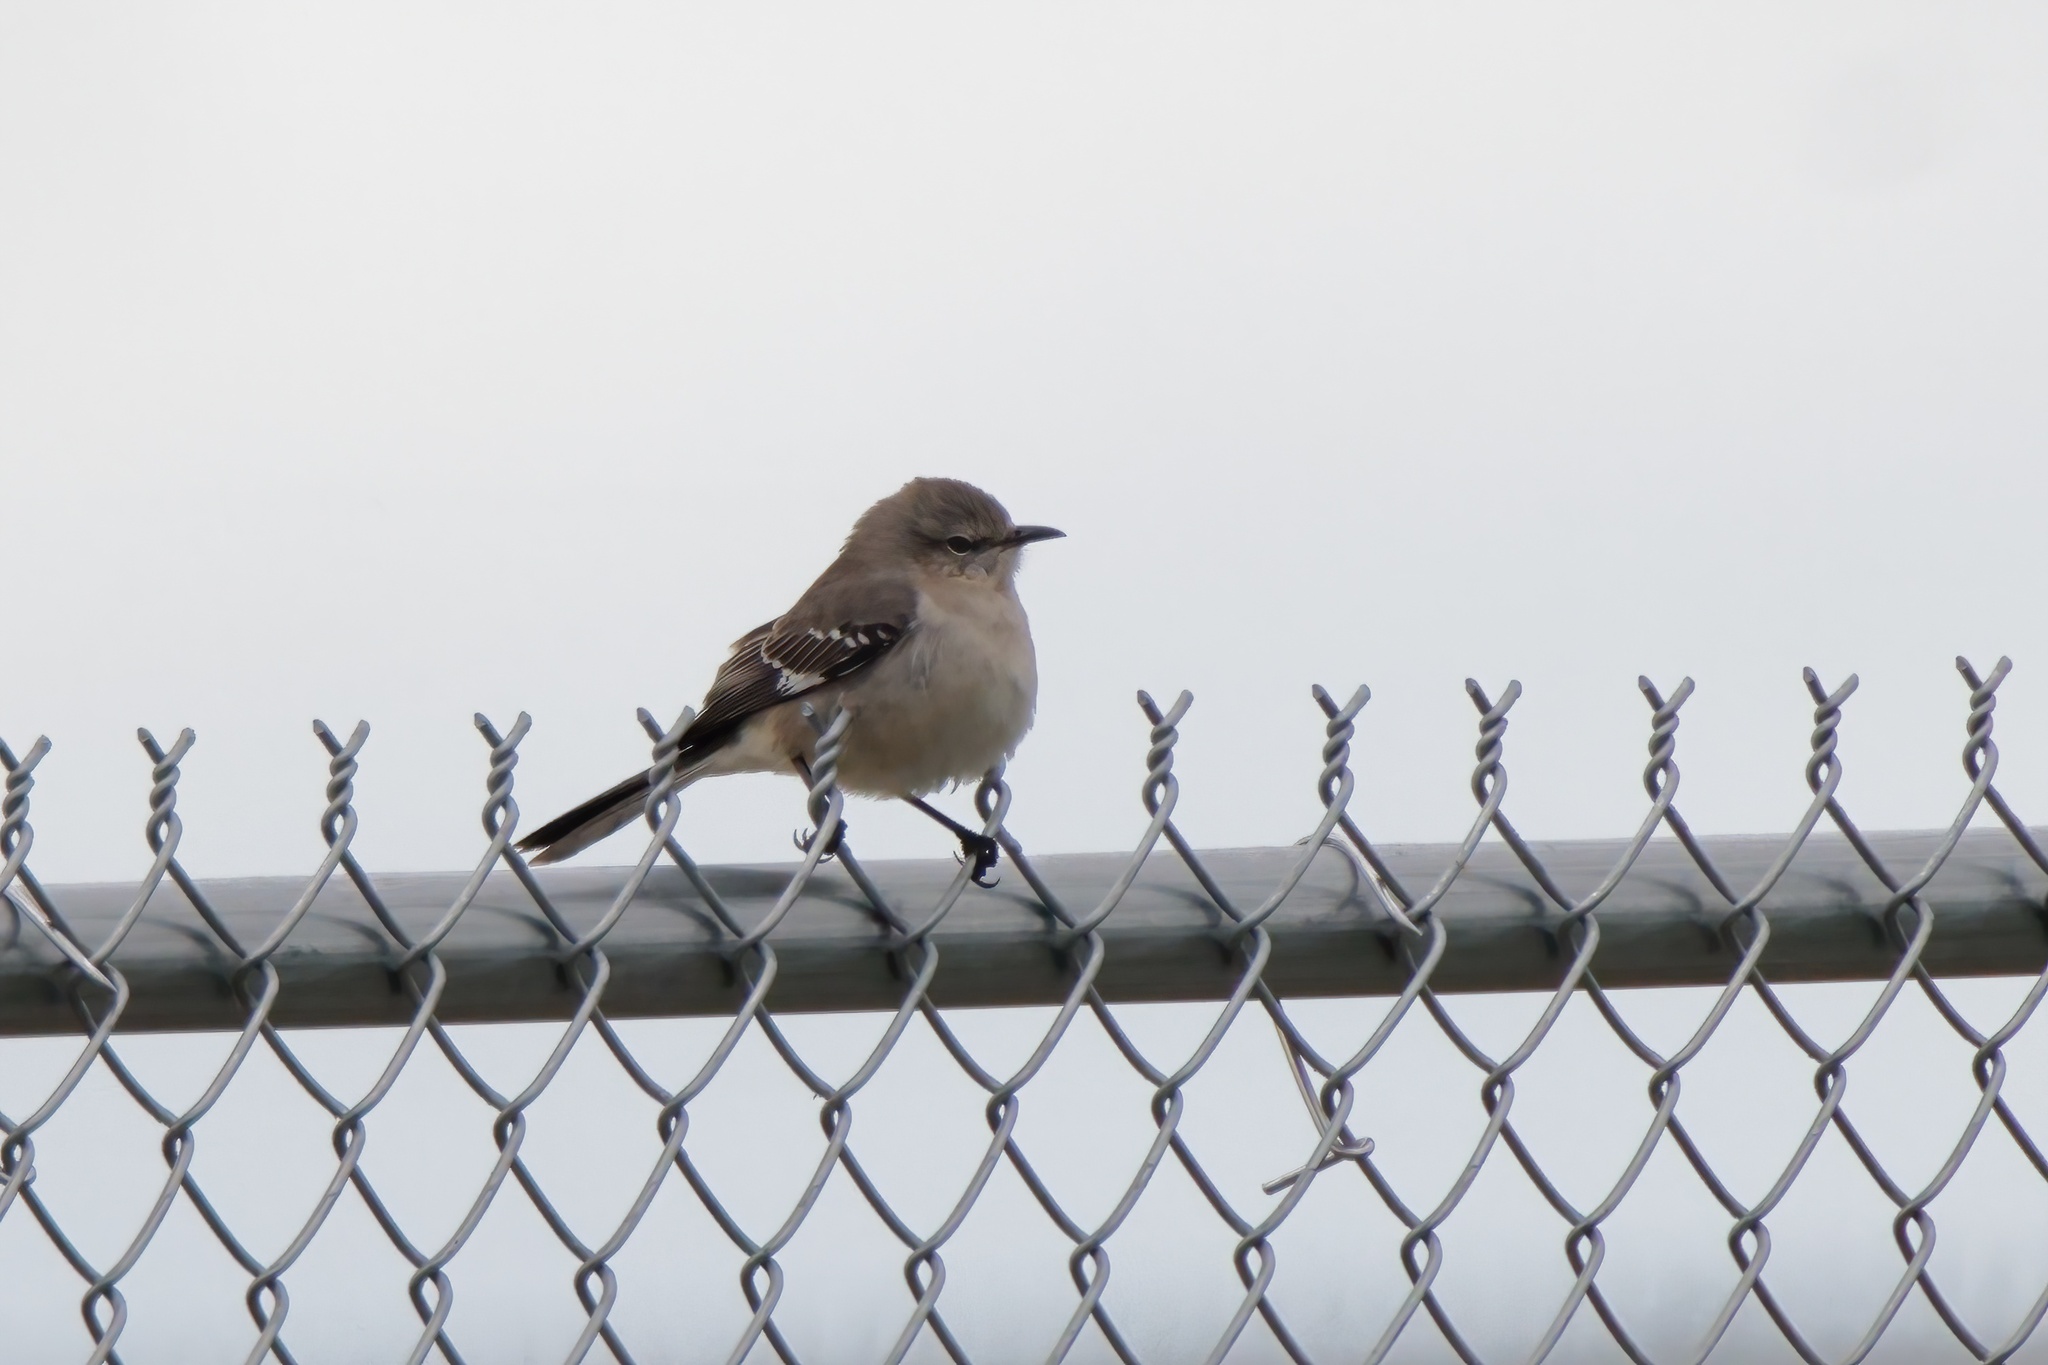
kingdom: Animalia
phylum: Chordata
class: Aves
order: Passeriformes
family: Mimidae
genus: Mimus
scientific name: Mimus polyglottos
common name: Northern mockingbird
